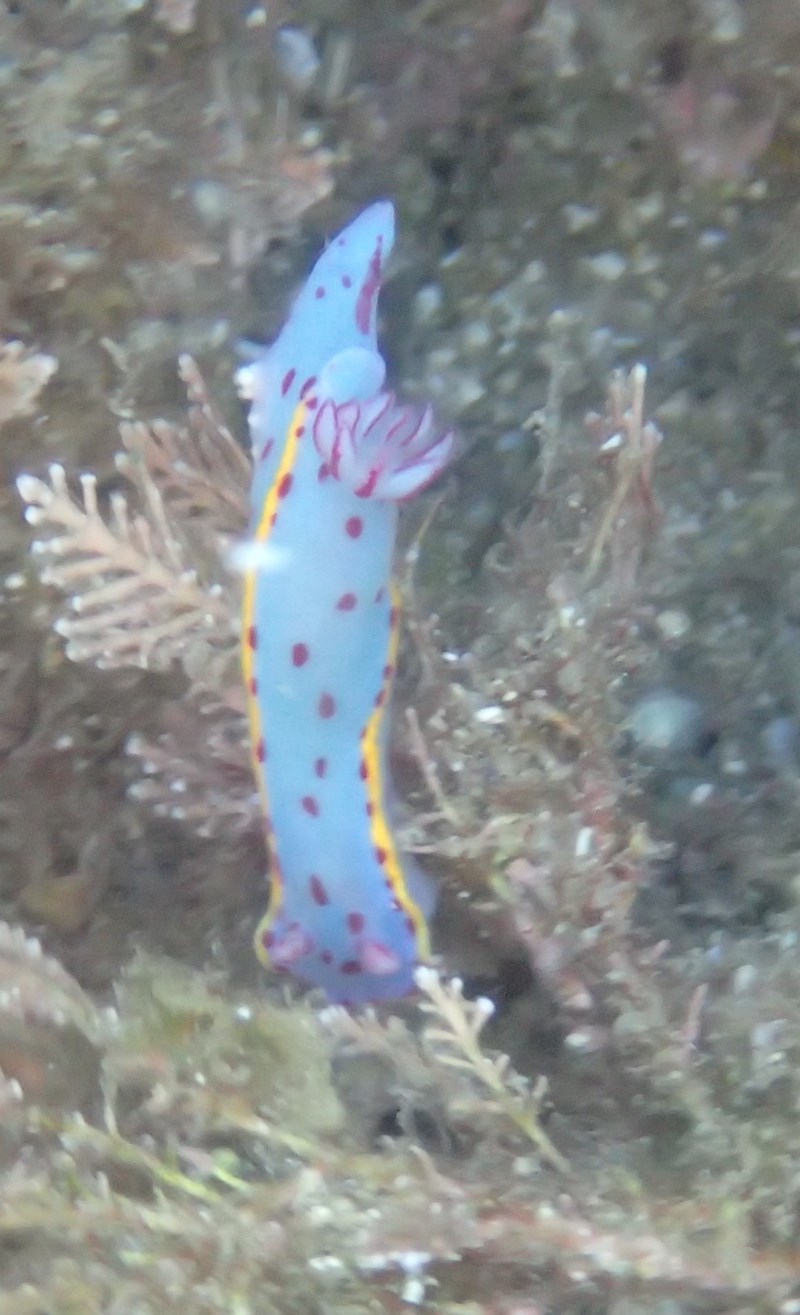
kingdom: Animalia
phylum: Mollusca
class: Gastropoda
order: Nudibranchia
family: Chromodorididae
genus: Hypselodoris
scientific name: Hypselodoris bennetti
